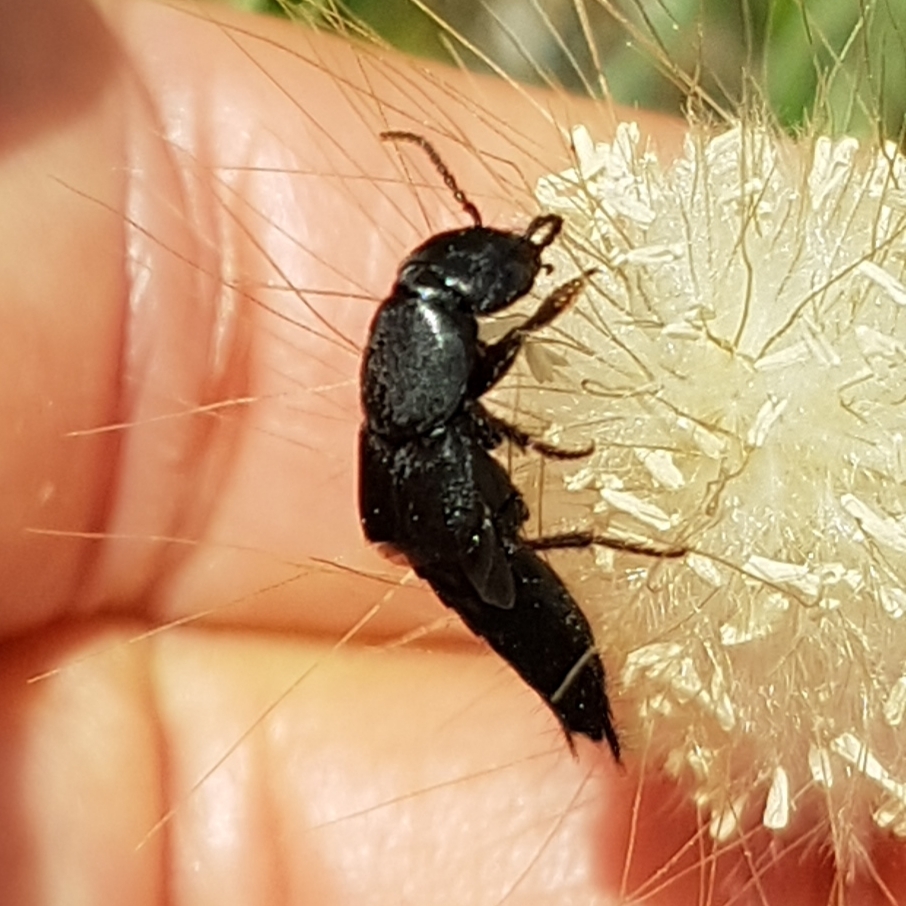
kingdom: Animalia
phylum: Arthropoda
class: Insecta
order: Coleoptera
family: Staphylinidae
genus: Ocypus
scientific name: Ocypus olens
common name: Devil's coach-horse
